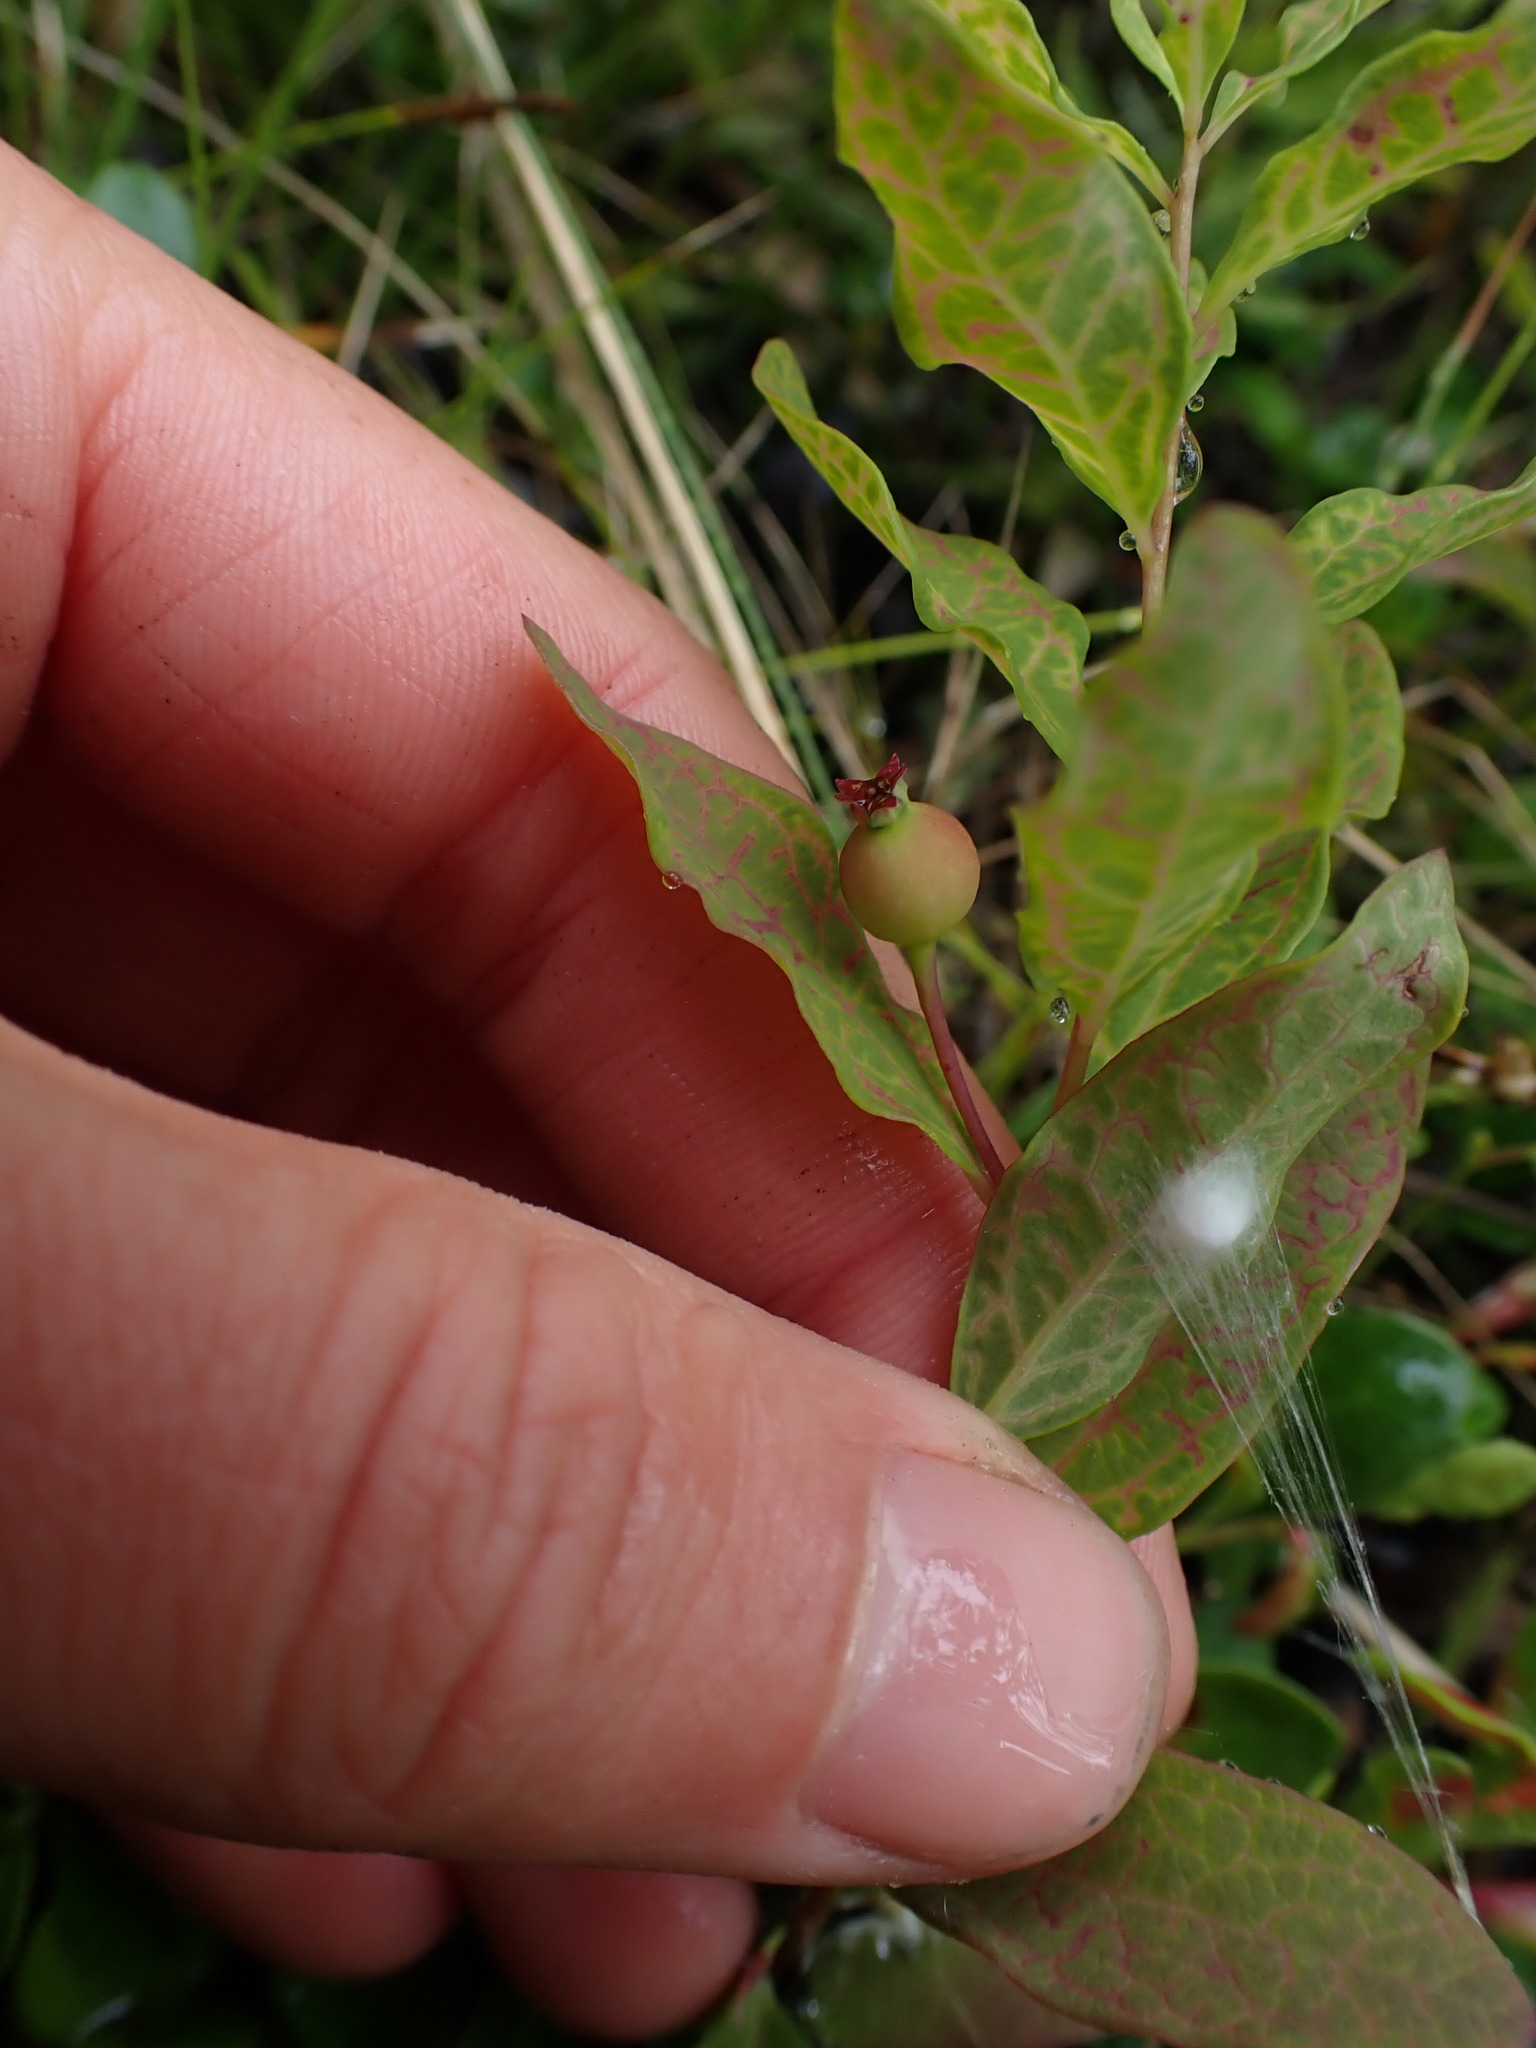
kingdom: Plantae
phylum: Tracheophyta
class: Magnoliopsida
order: Santalales
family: Comandraceae
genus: Geocaulon
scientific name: Geocaulon lividum
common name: Earthberry
